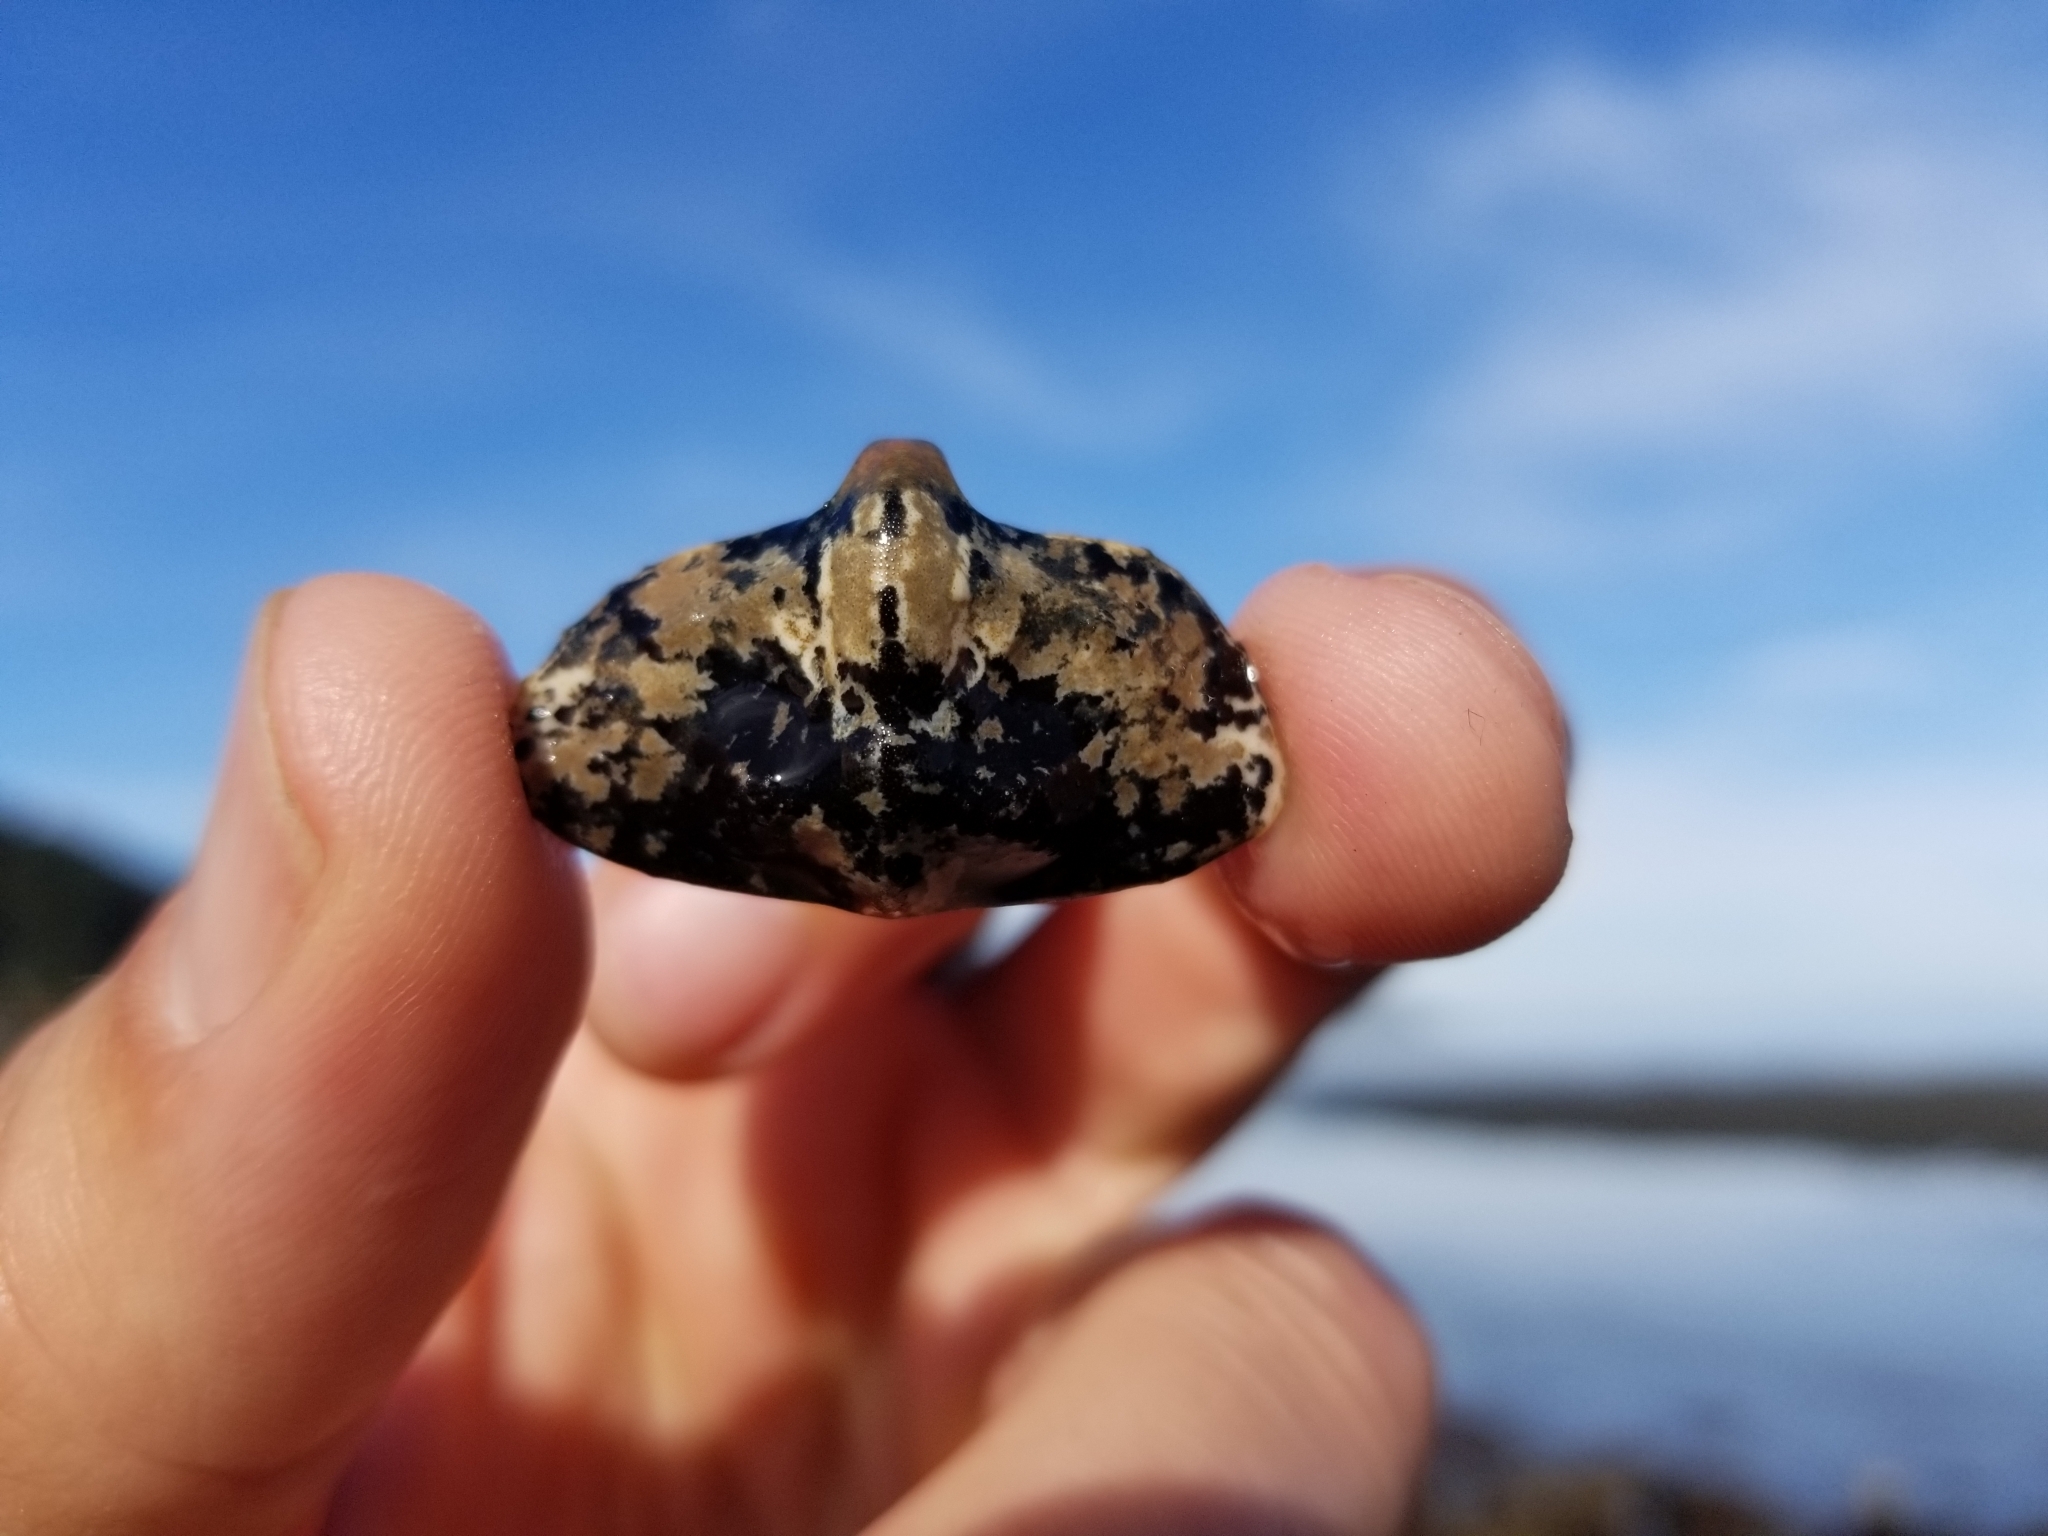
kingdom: Animalia
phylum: Arthropoda
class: Malacostraca
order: Decapoda
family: Lithodidae
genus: Cryptolithodes
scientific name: Cryptolithodes typicus
